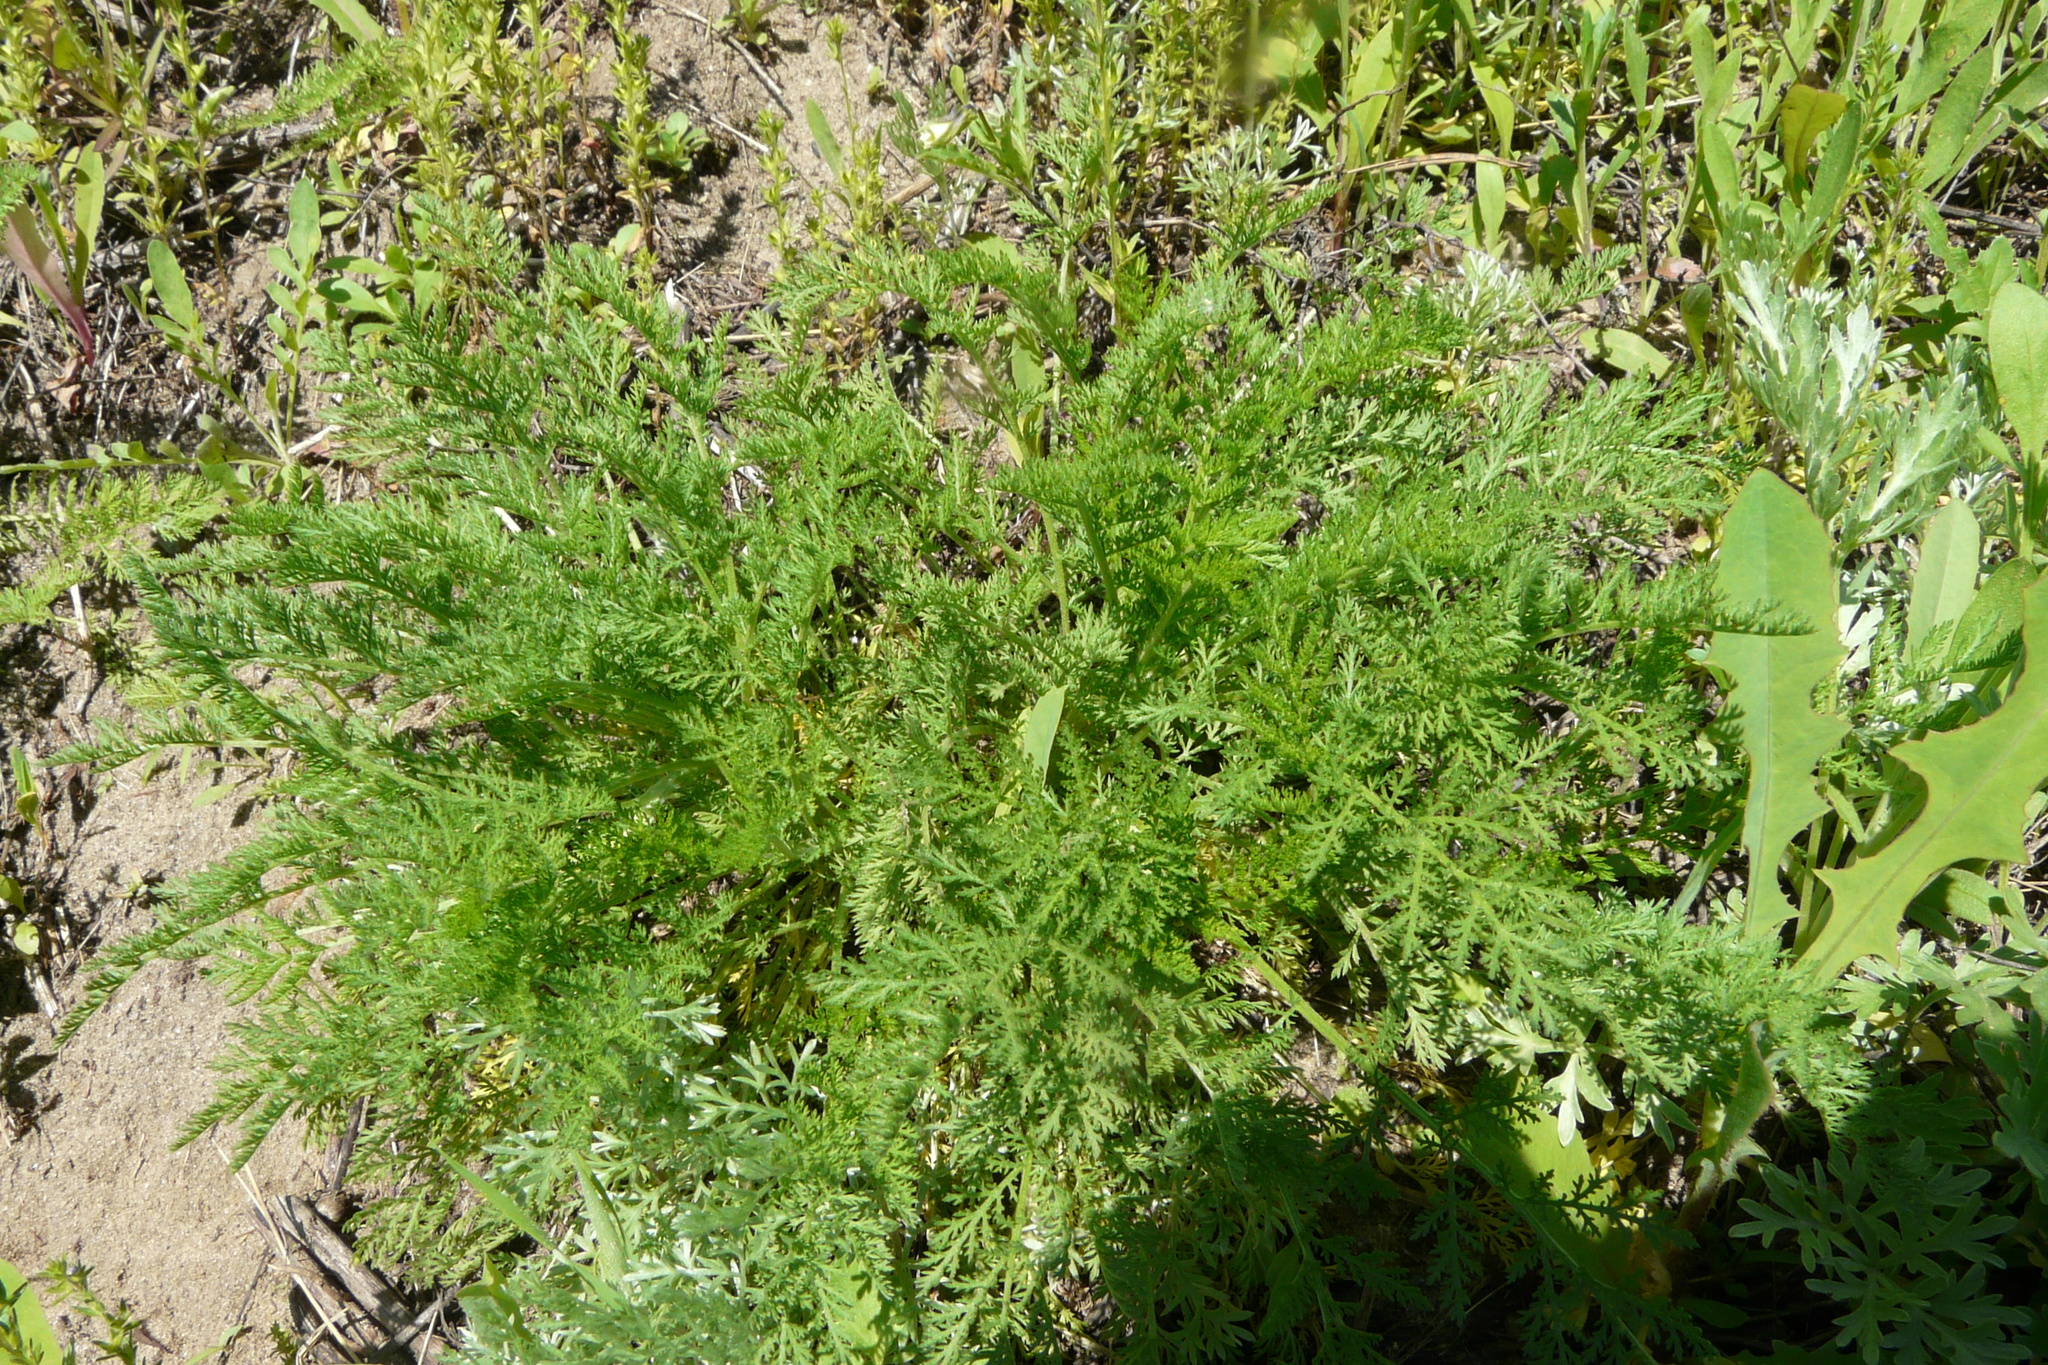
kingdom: Plantae
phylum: Tracheophyta
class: Magnoliopsida
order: Asterales
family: Asteraceae
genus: Achillea
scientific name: Achillea nobilis
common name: Noble yarrow
